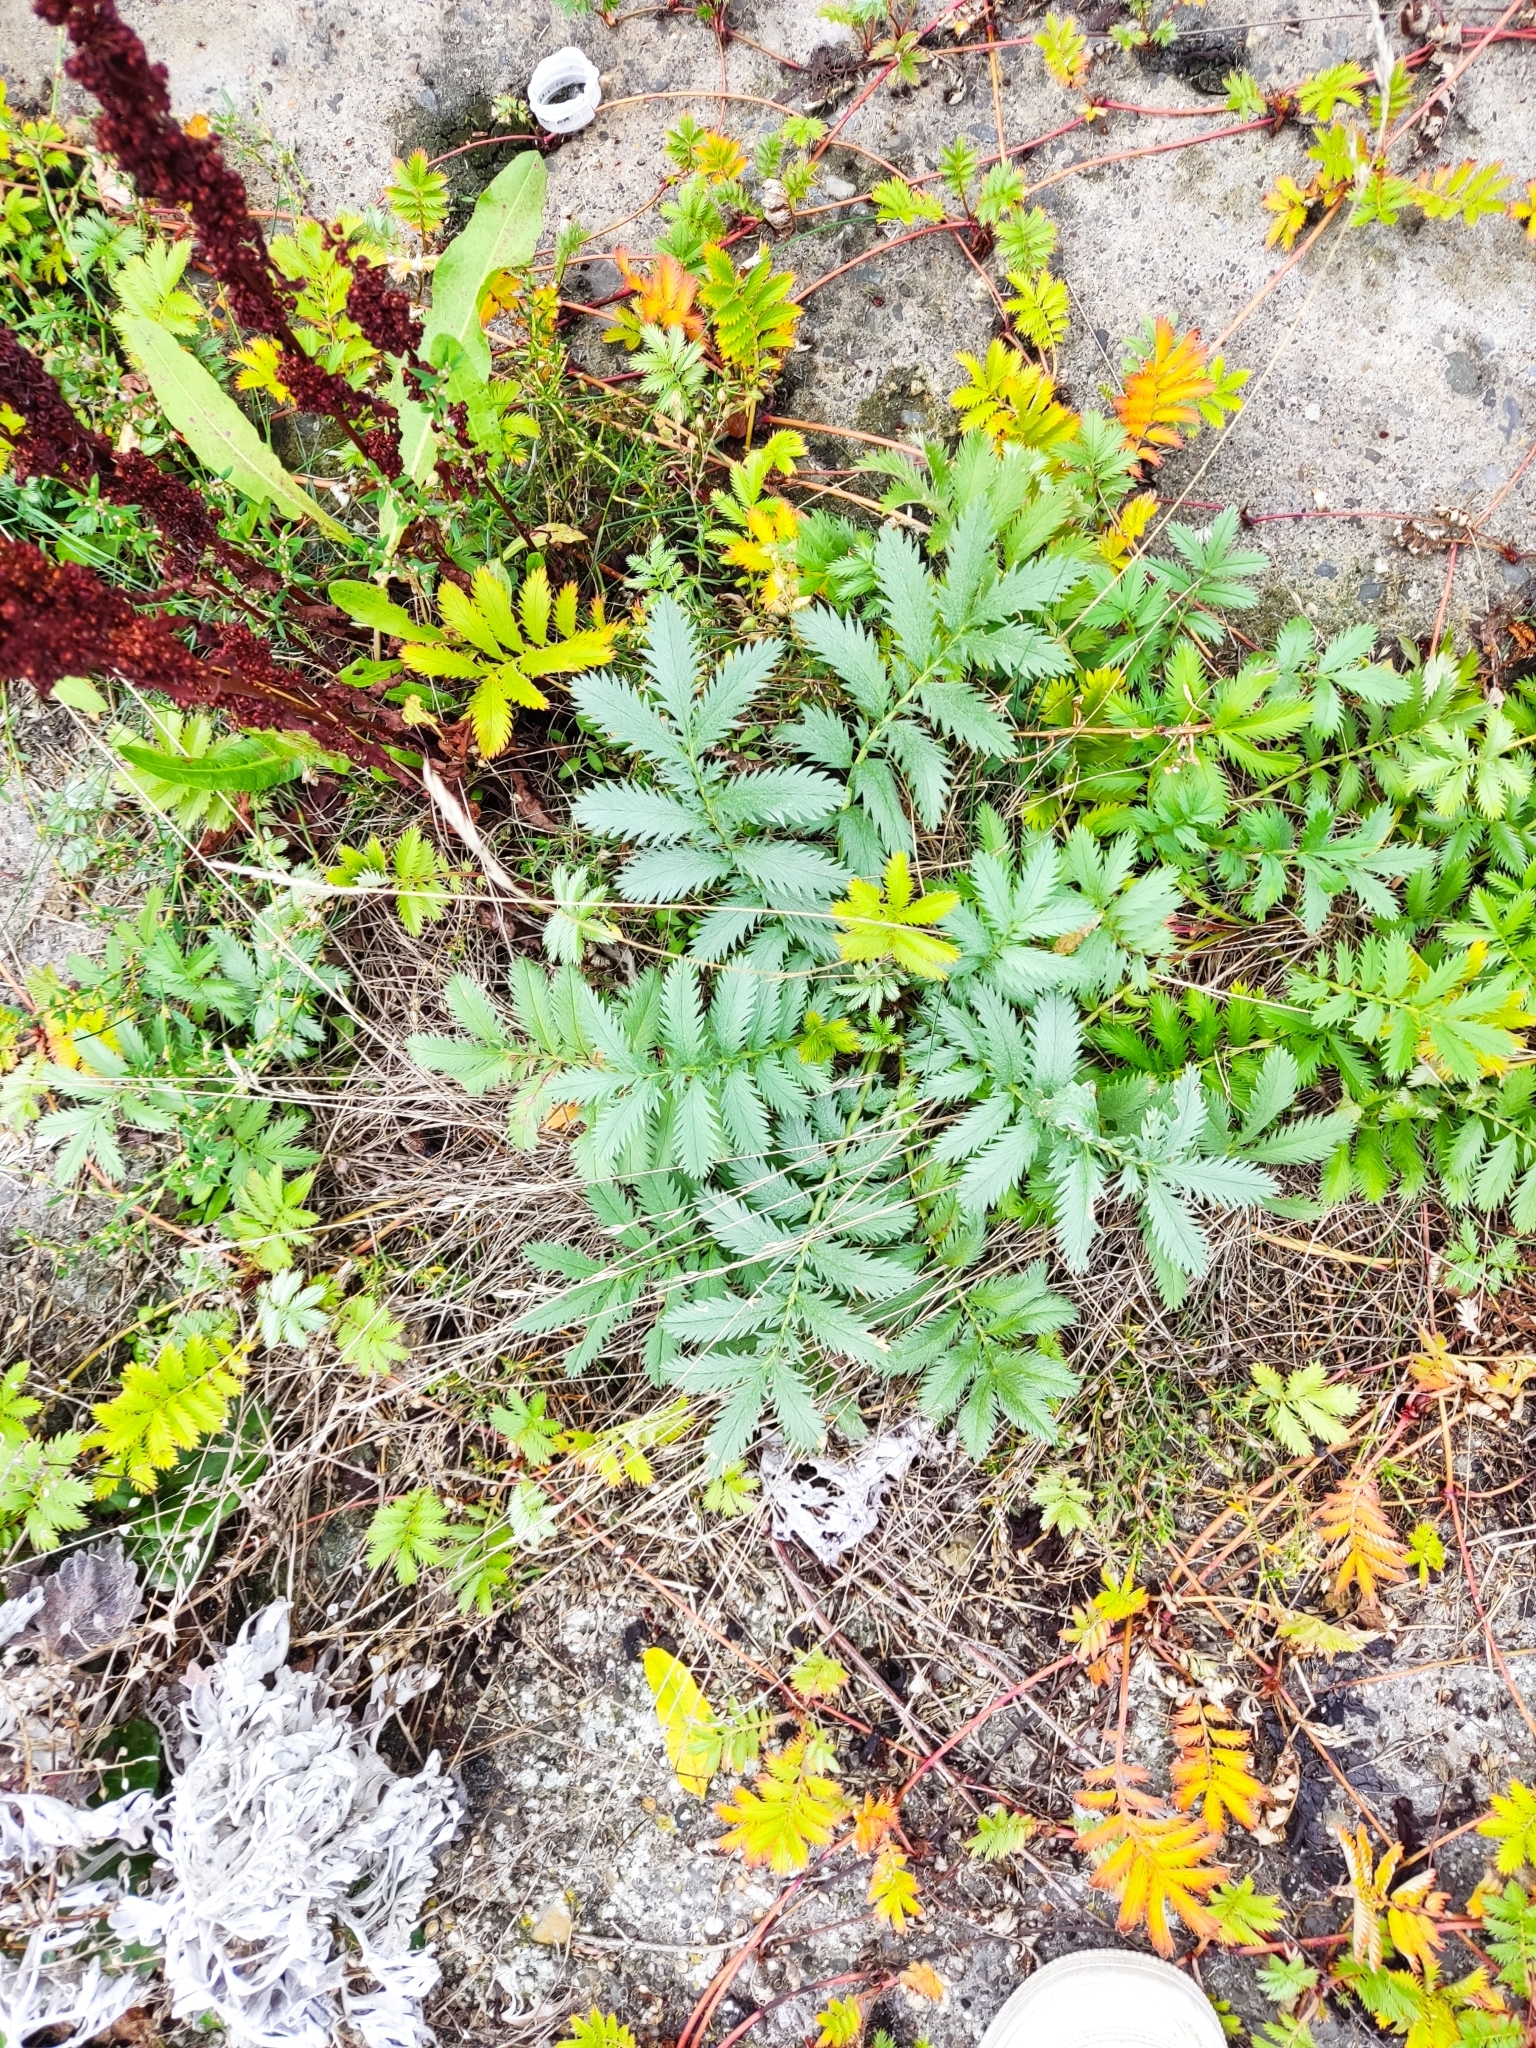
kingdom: Plantae
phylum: Tracheophyta
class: Magnoliopsida
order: Rosales
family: Rosaceae
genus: Argentina
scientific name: Argentina anserina
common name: Common silverweed
